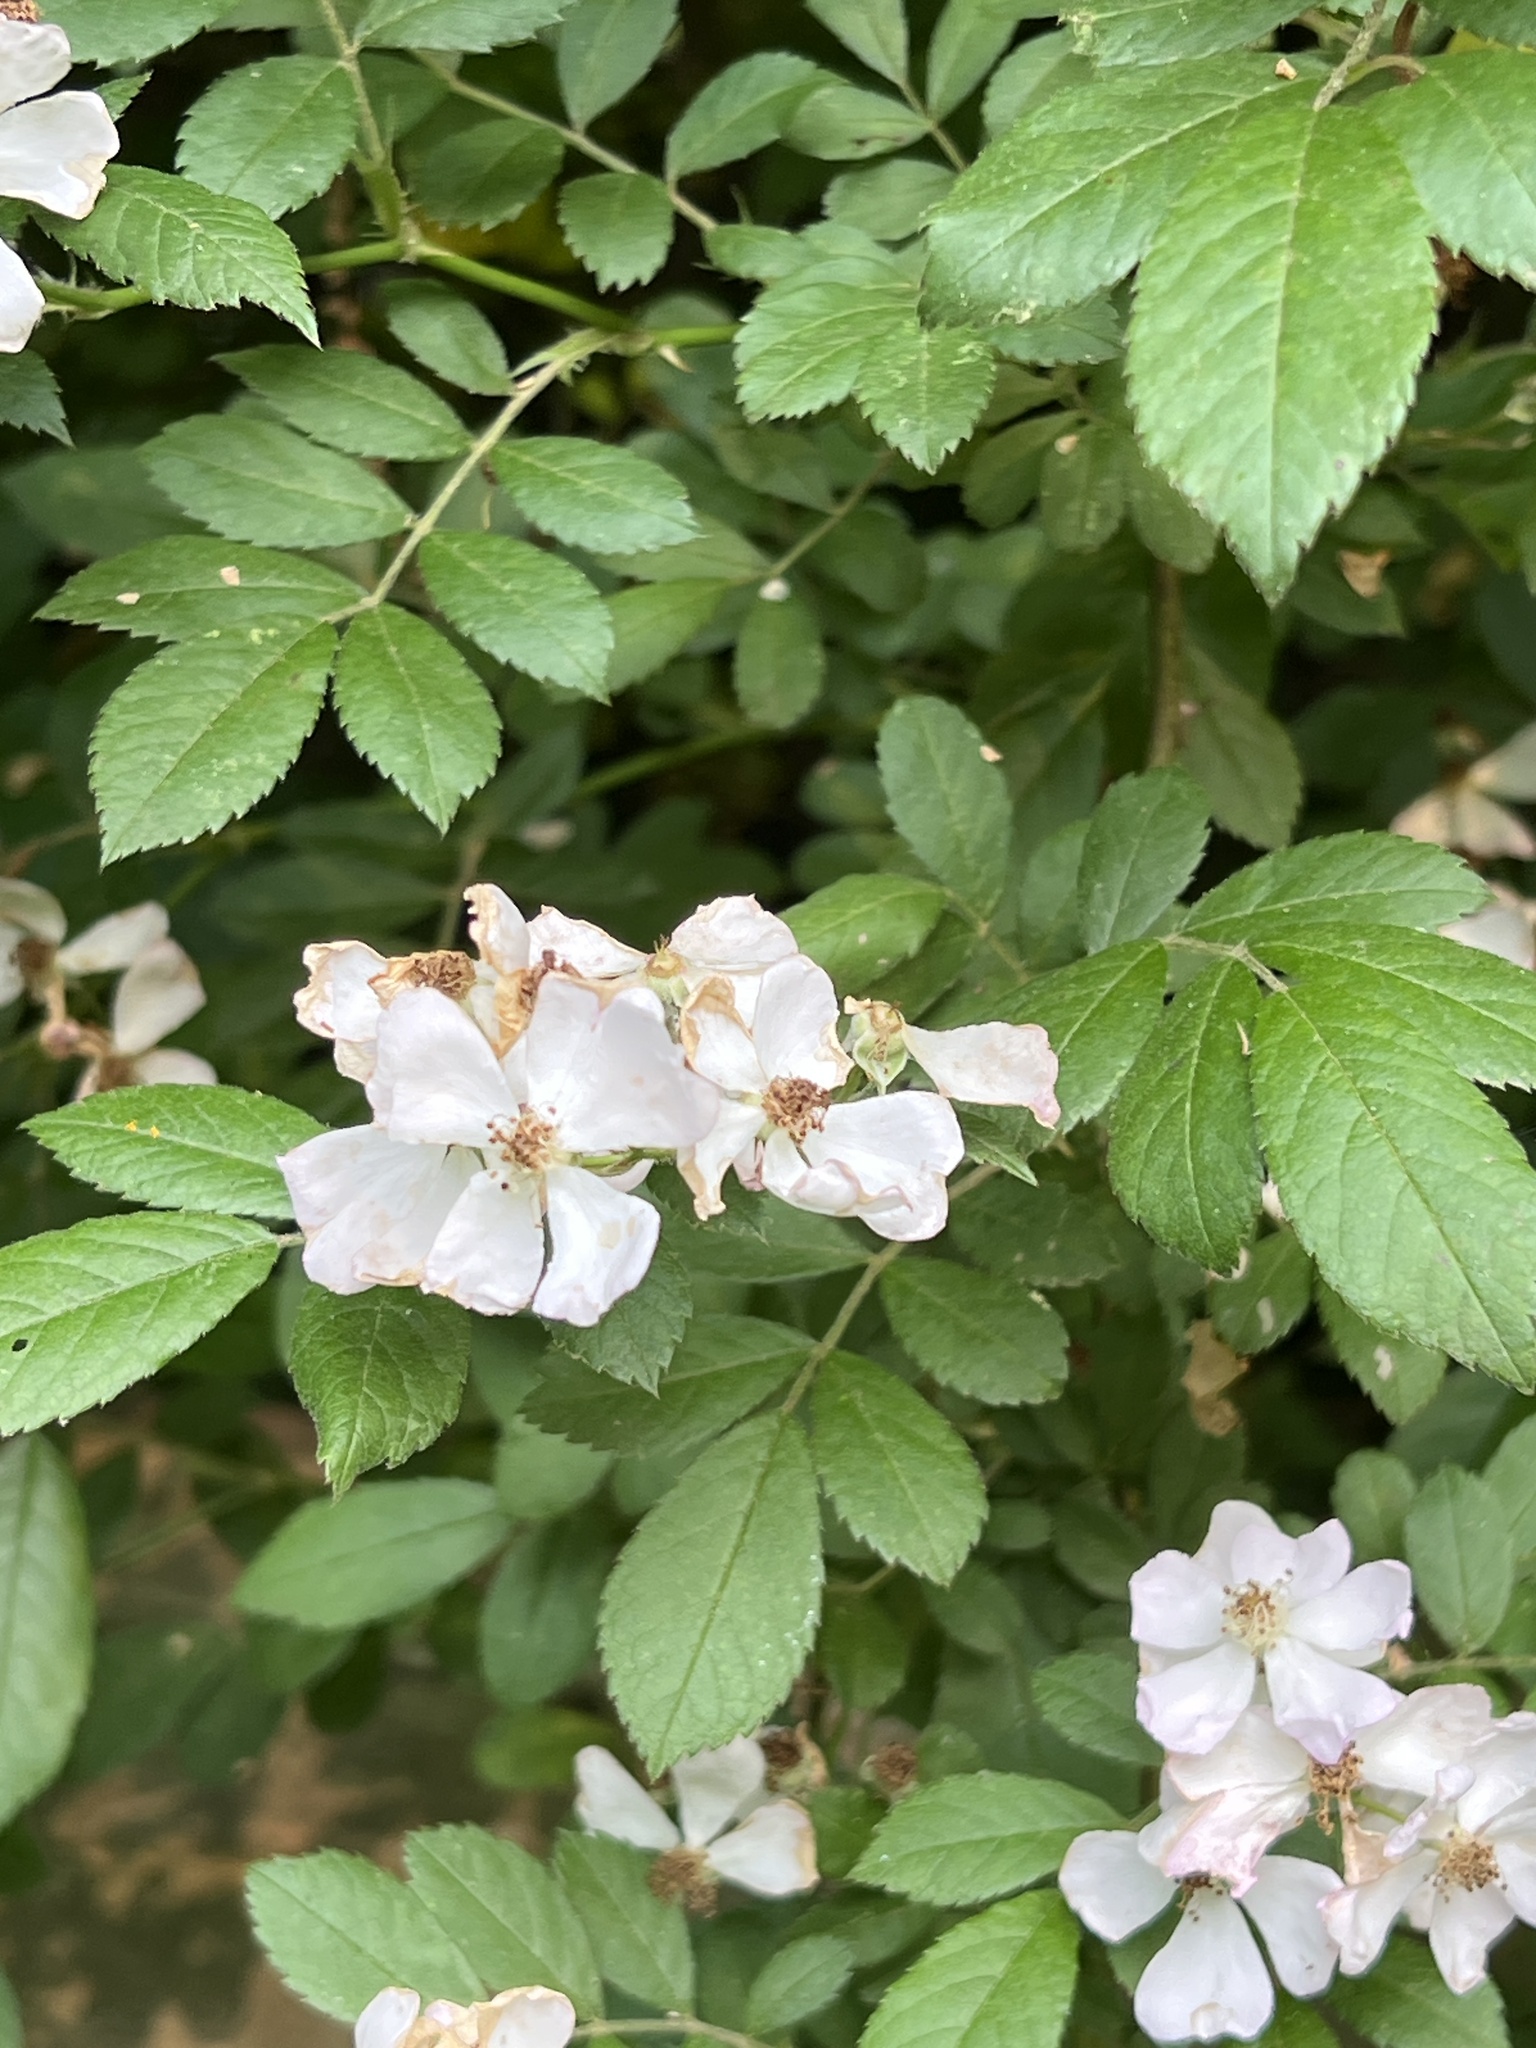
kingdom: Plantae
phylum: Tracheophyta
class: Magnoliopsida
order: Rosales
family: Rosaceae
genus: Rosa
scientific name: Rosa multiflora
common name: Multiflora rose
